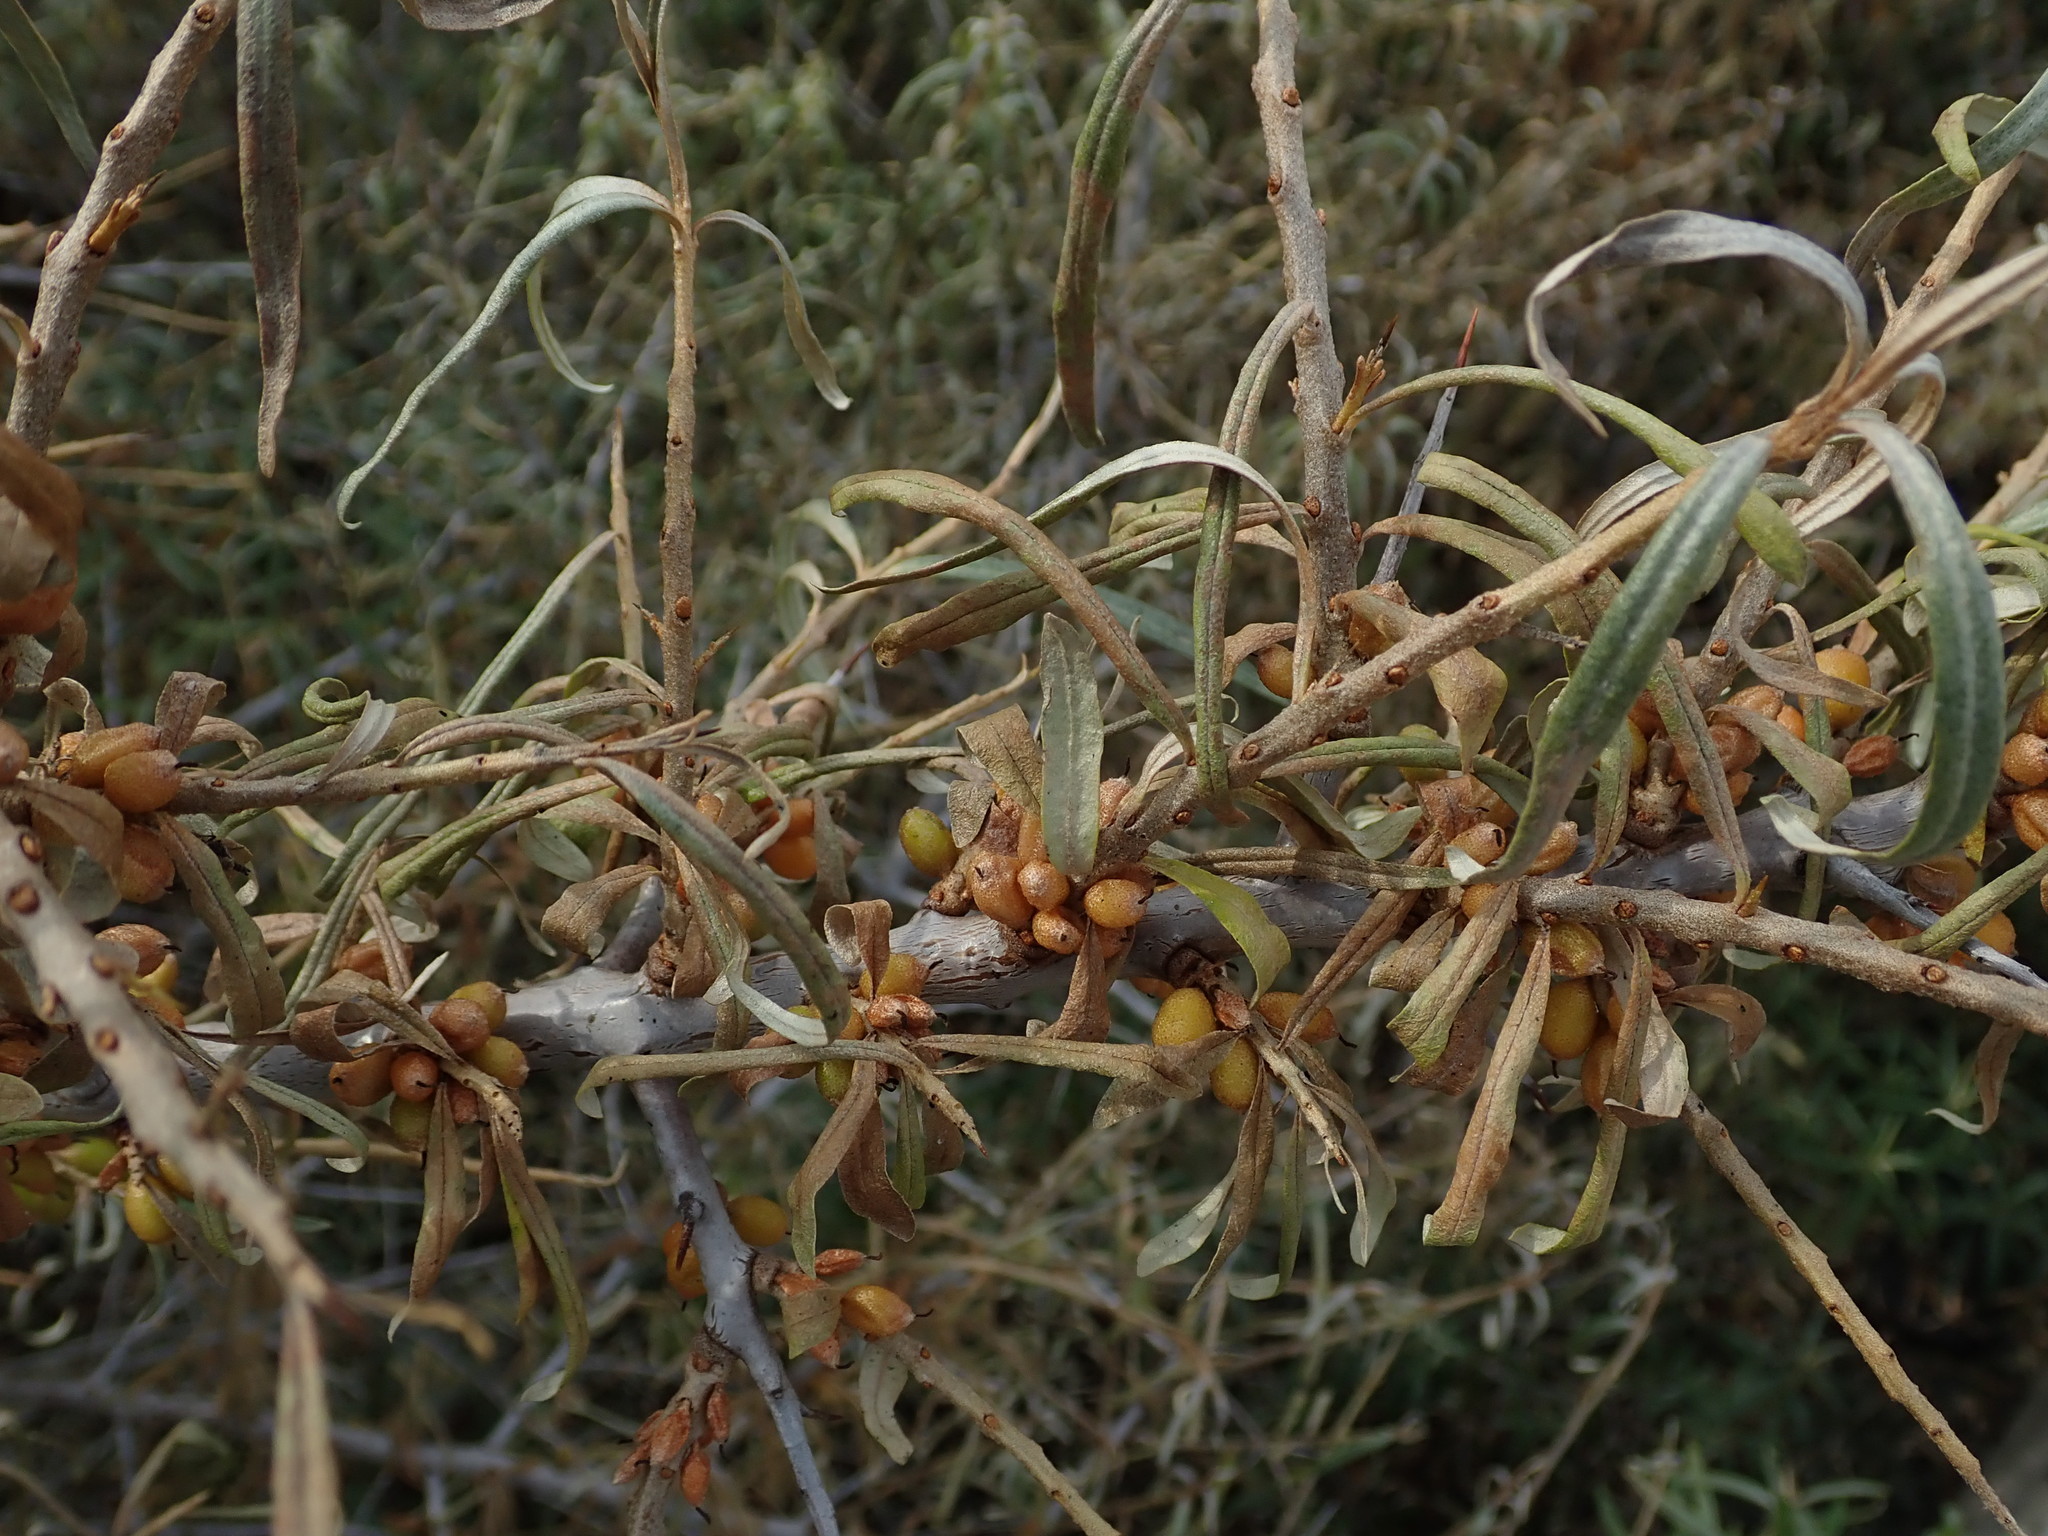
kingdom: Plantae
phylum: Tracheophyta
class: Magnoliopsida
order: Rosales
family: Elaeagnaceae
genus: Hippophae
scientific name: Hippophae rhamnoides
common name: Sea-buckthorn
